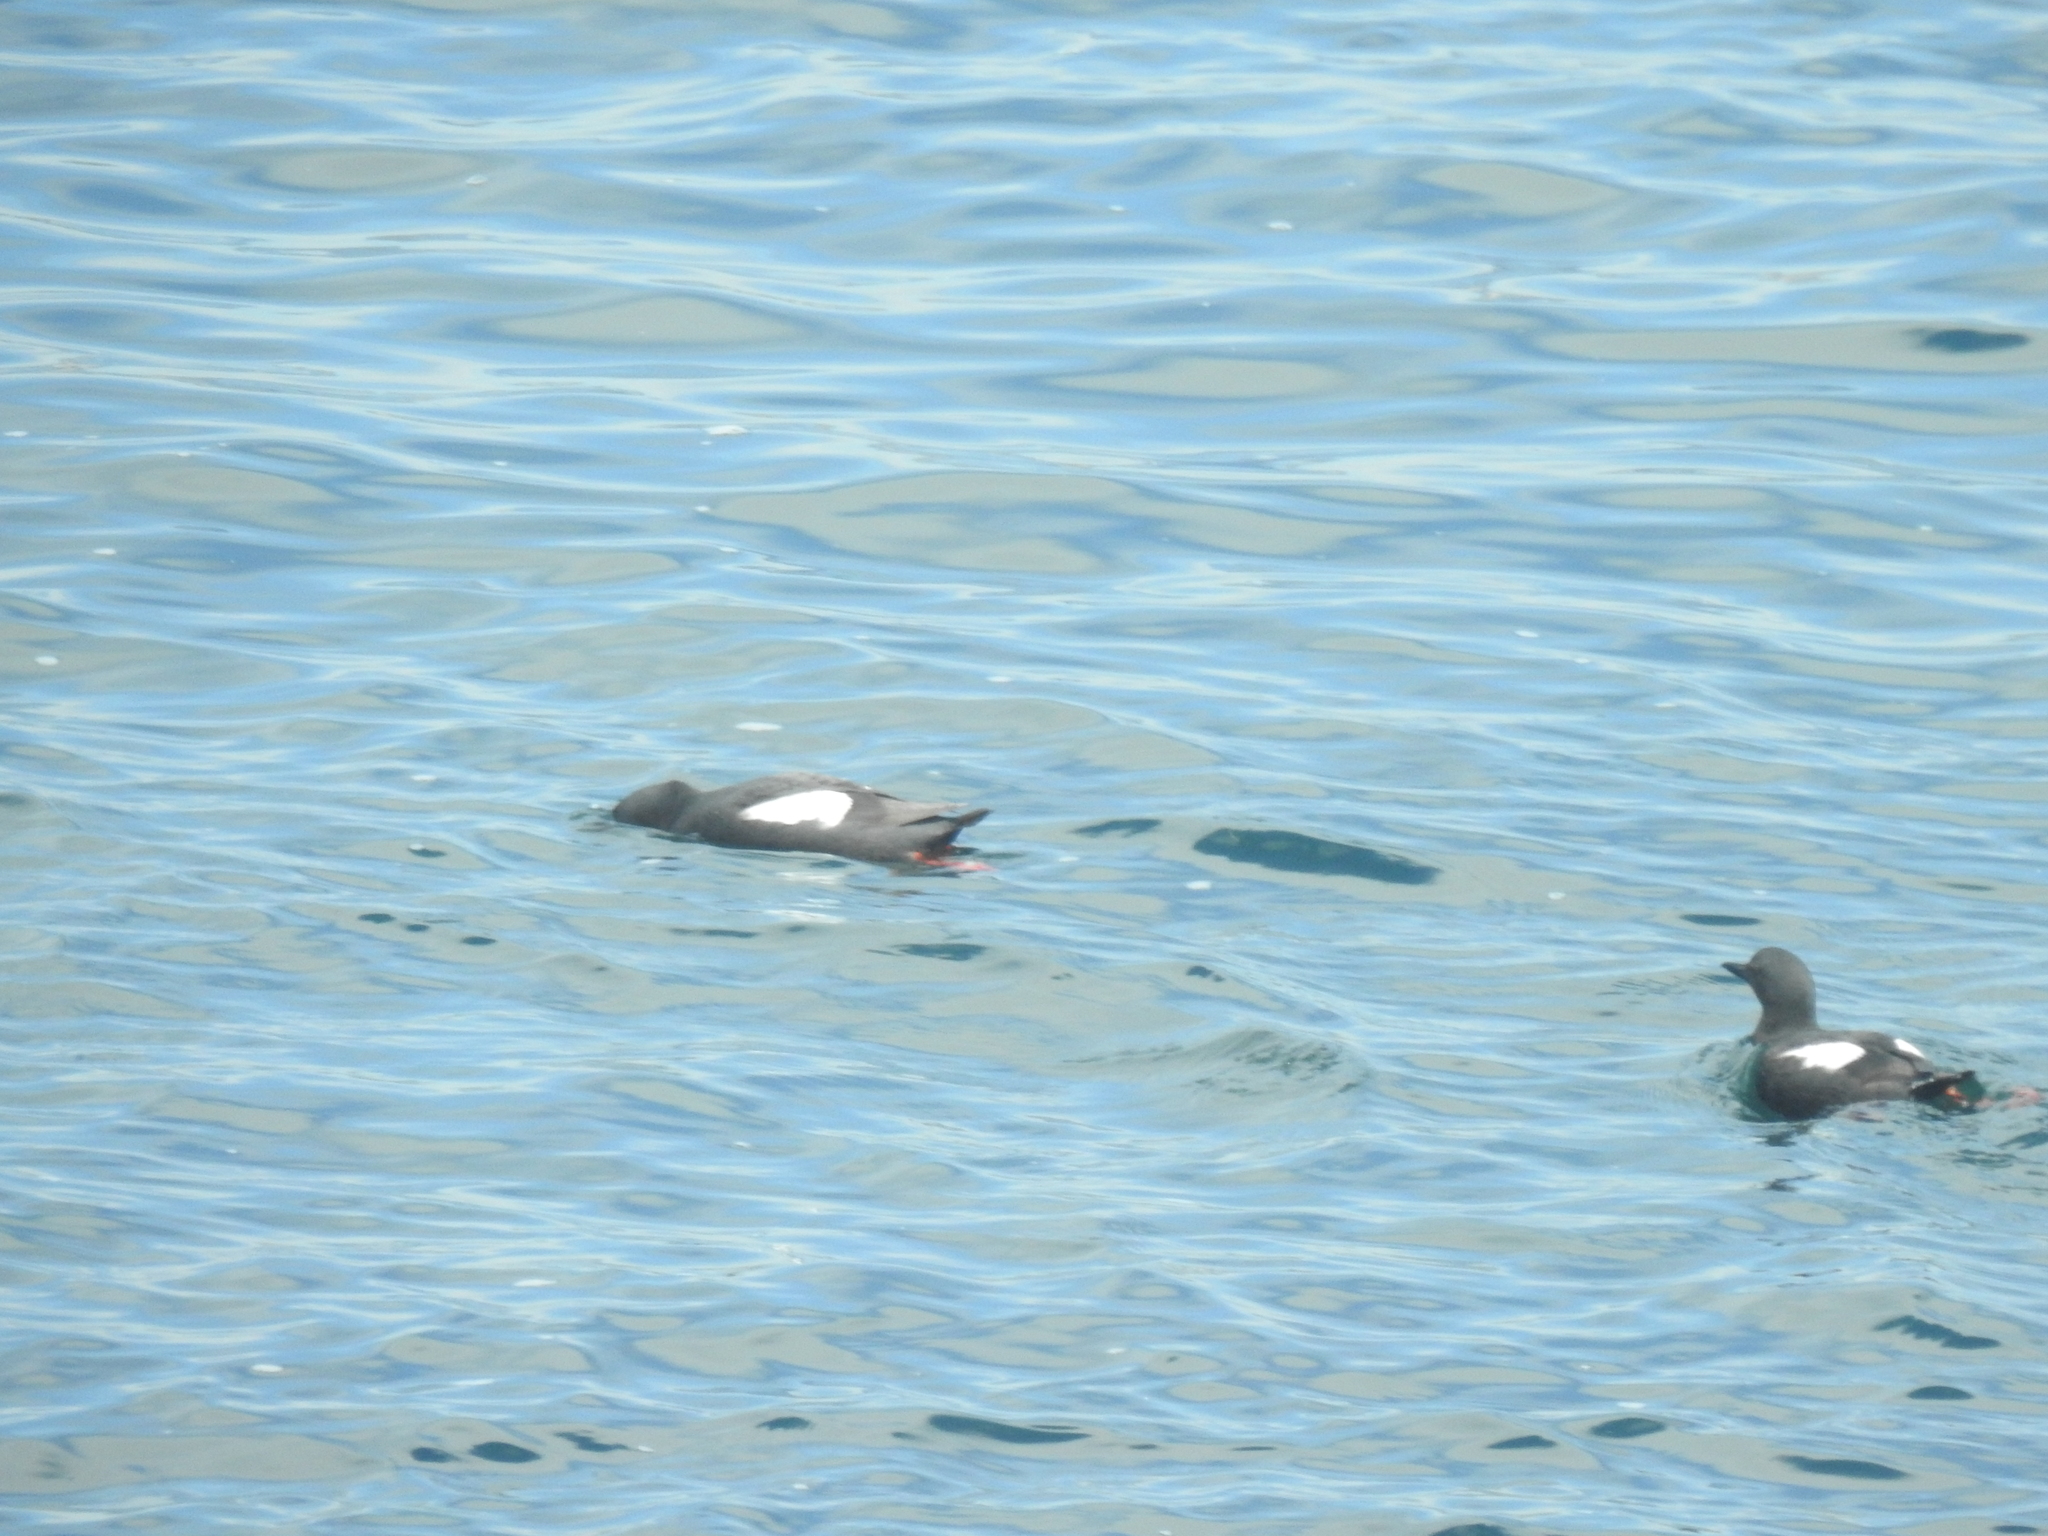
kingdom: Animalia
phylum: Chordata
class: Aves
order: Charadriiformes
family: Alcidae
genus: Cepphus
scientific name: Cepphus columba
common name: Pigeon guillemot
